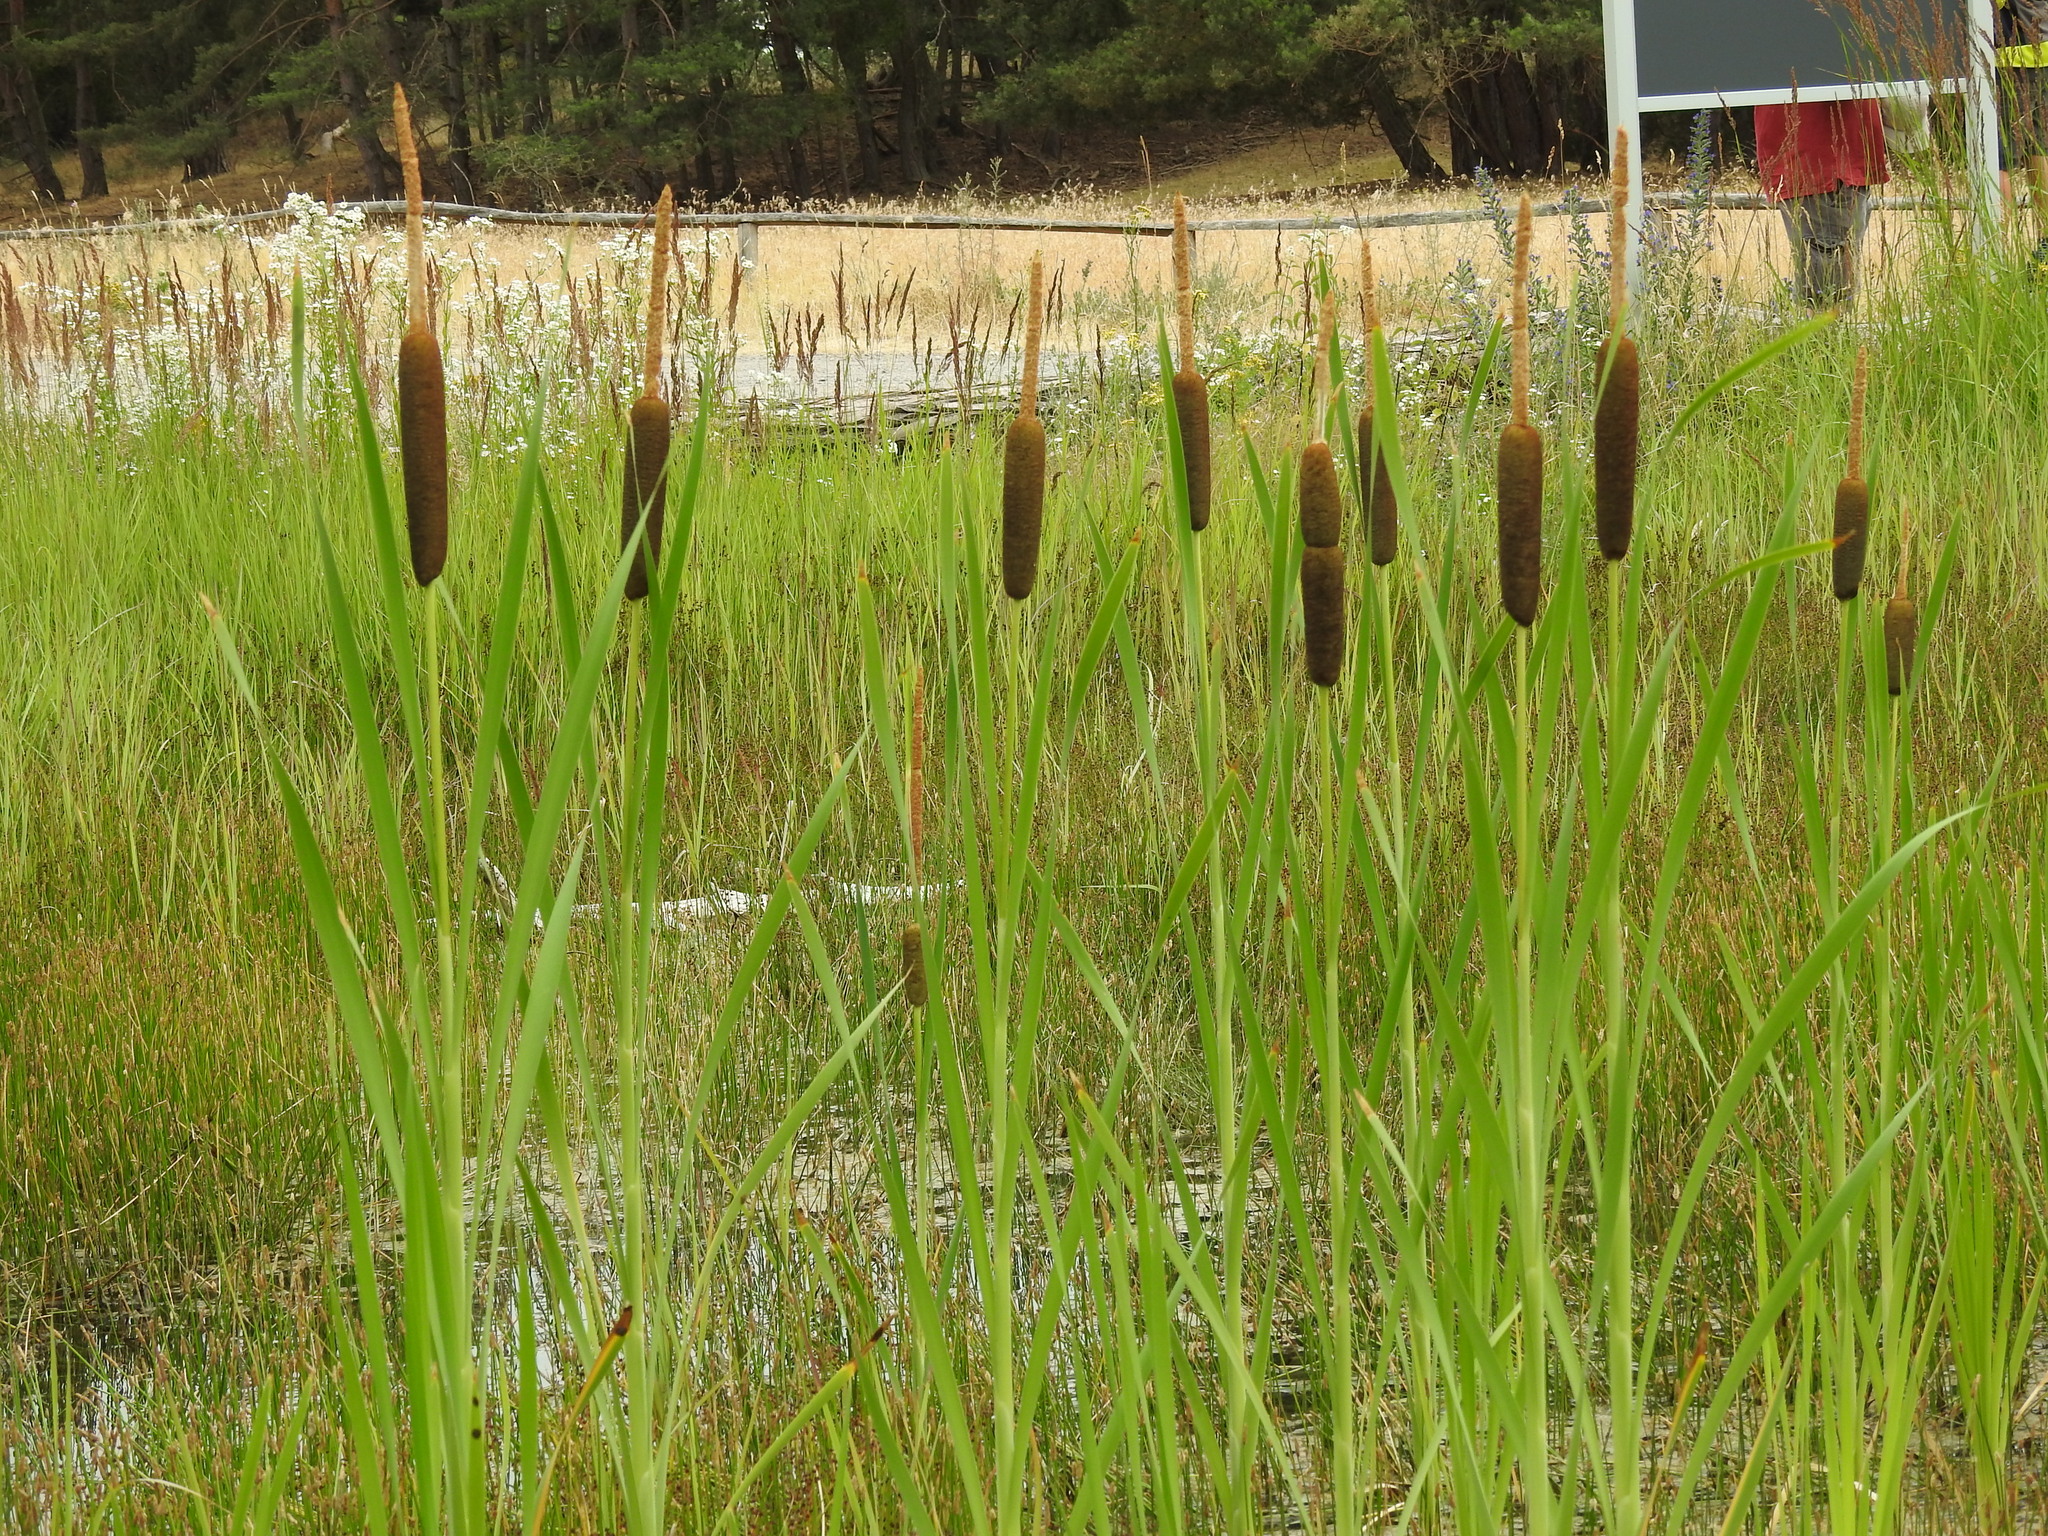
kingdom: Plantae
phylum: Tracheophyta
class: Liliopsida
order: Poales
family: Typhaceae
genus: Typha
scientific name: Typha latifolia
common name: Broadleaf cattail
